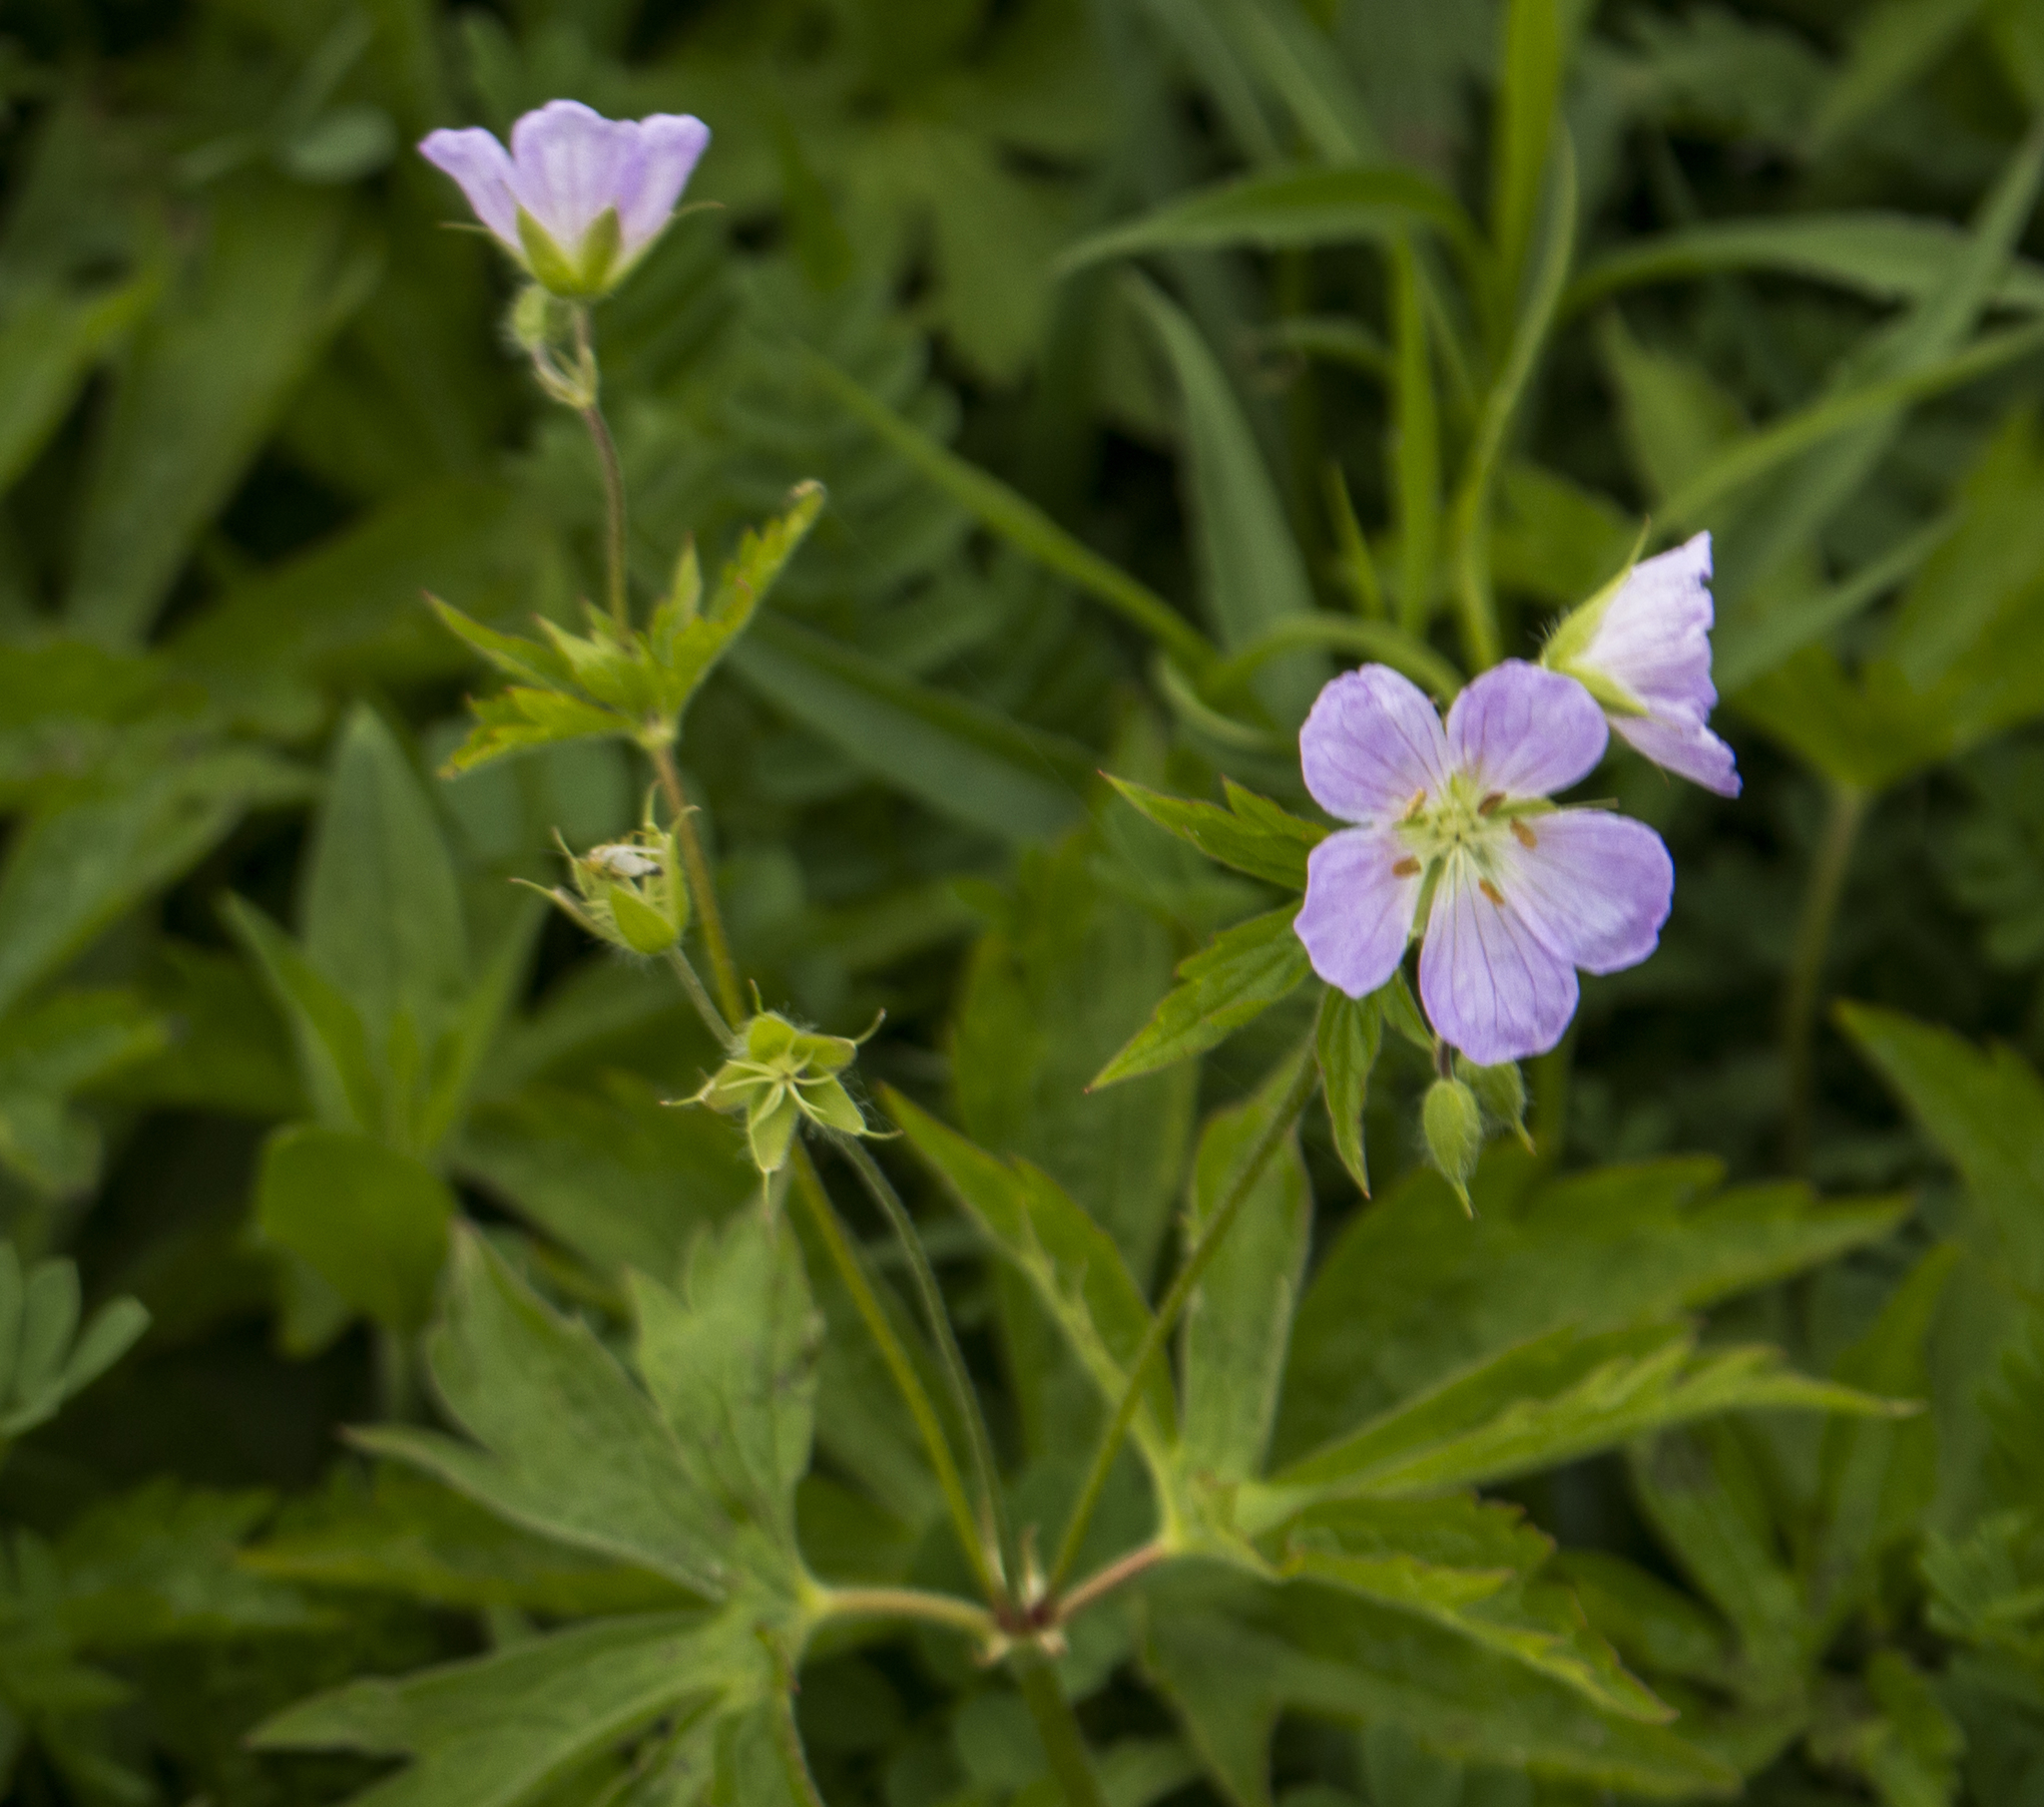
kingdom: Plantae
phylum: Tracheophyta
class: Magnoliopsida
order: Geraniales
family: Geraniaceae
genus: Geranium
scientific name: Geranium maculatum
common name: Spotted geranium
